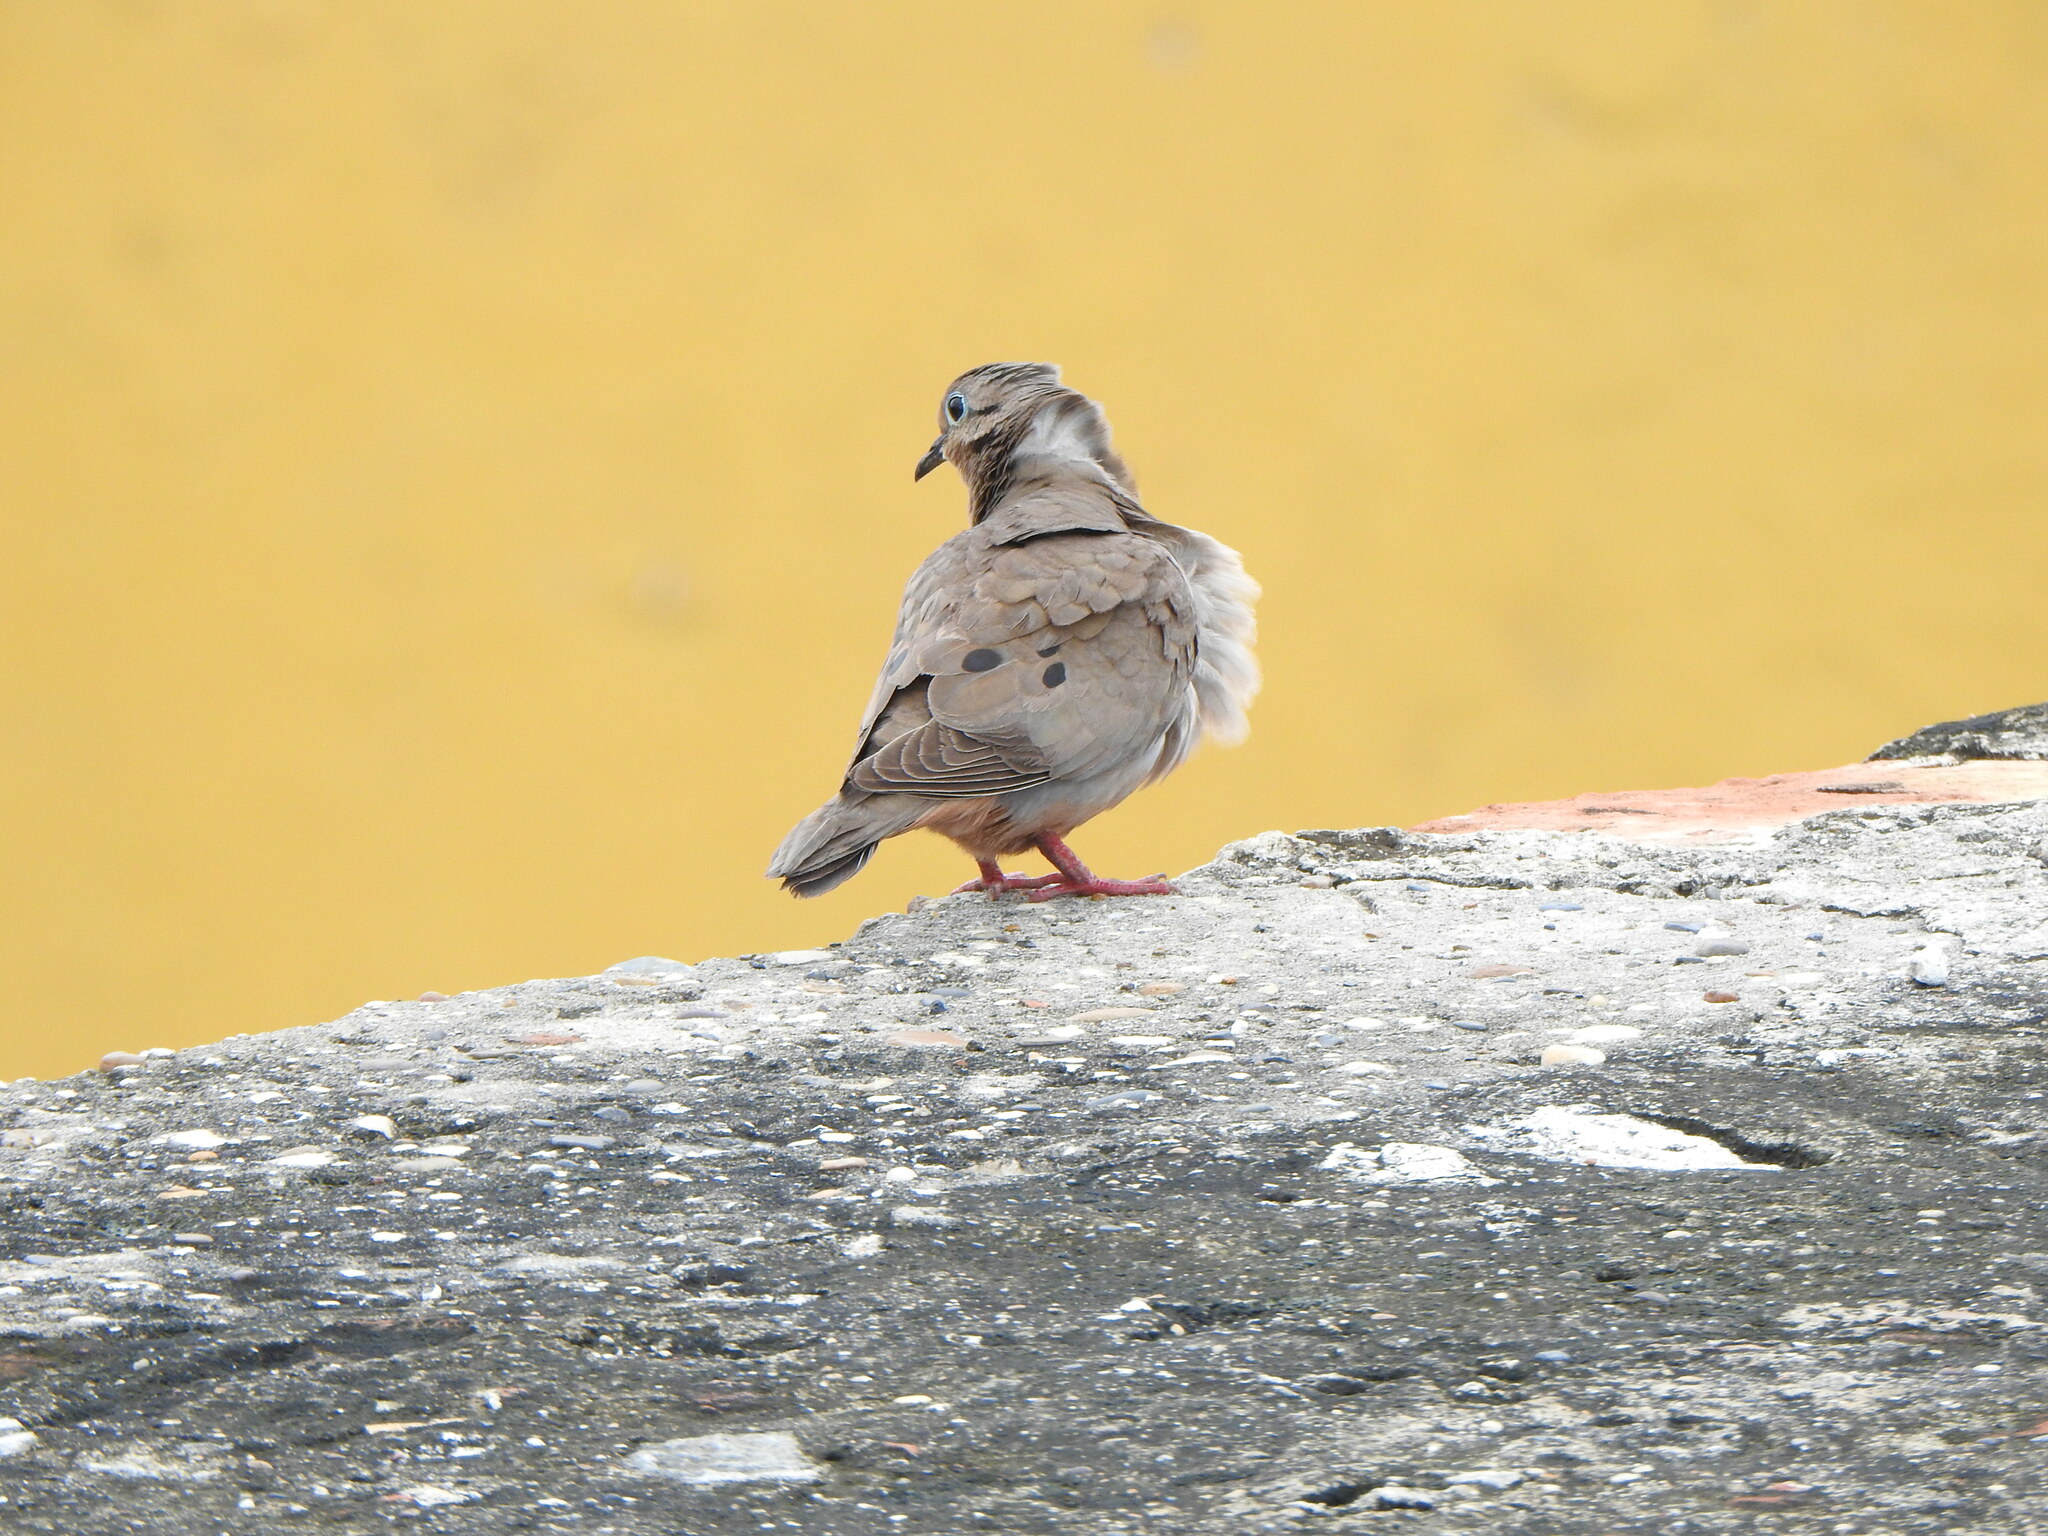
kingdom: Animalia
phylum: Chordata
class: Aves
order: Columbiformes
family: Columbidae
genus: Zenaida
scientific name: Zenaida auriculata
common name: Eared dove
